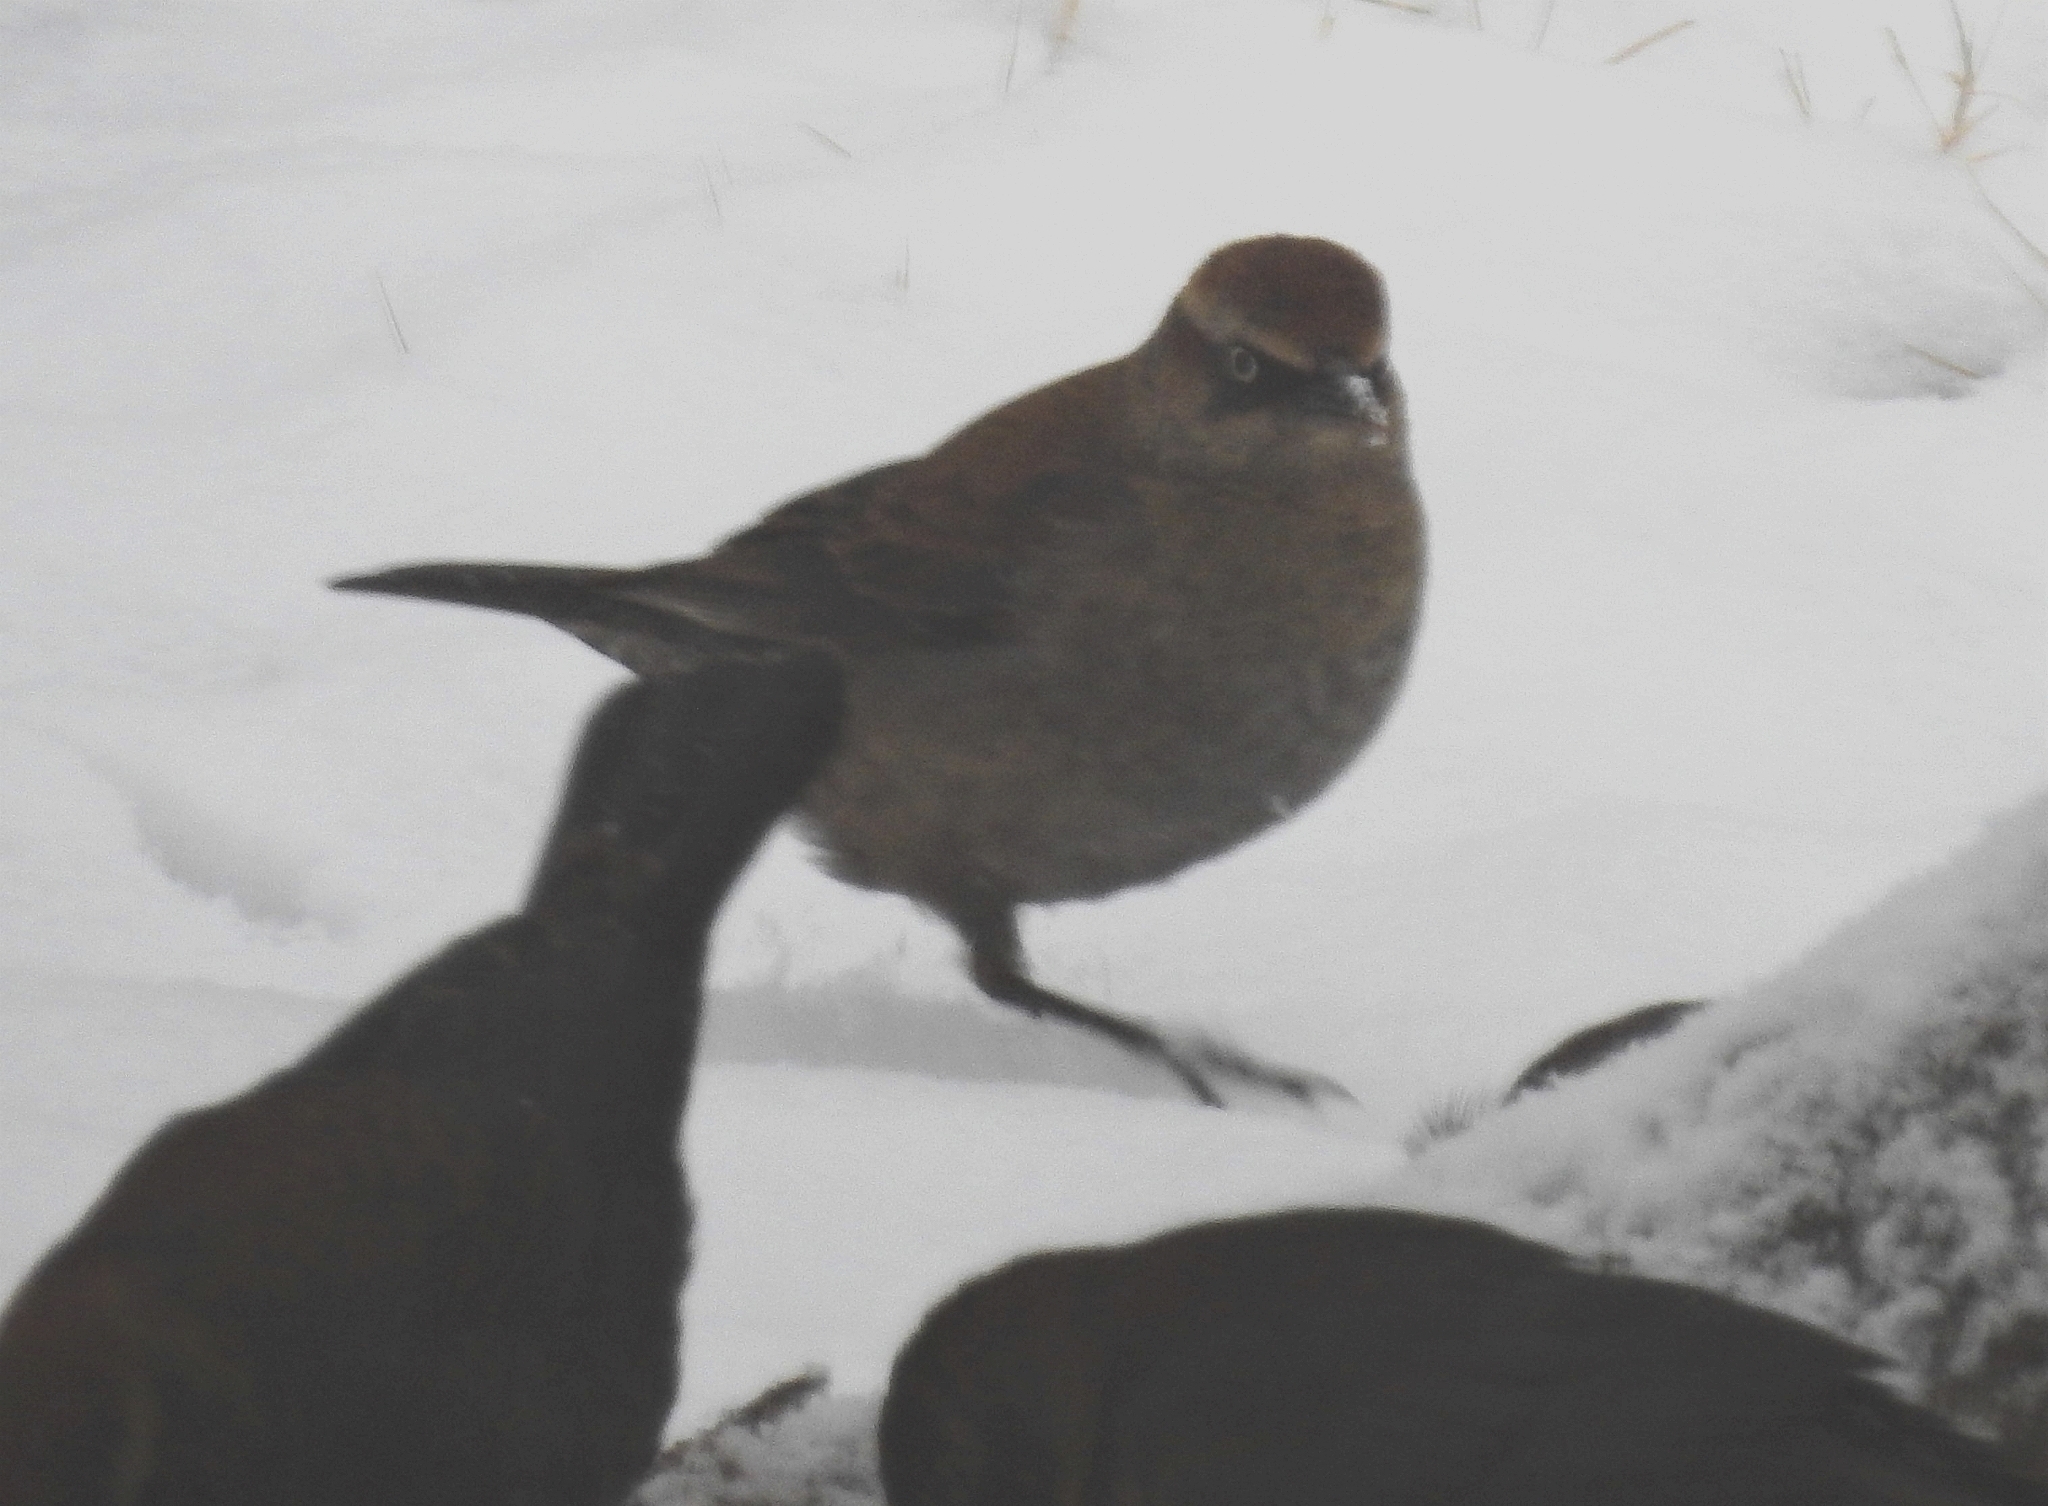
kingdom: Animalia
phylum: Chordata
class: Aves
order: Passeriformes
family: Icteridae
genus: Euphagus
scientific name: Euphagus carolinus
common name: Rusty blackbird
